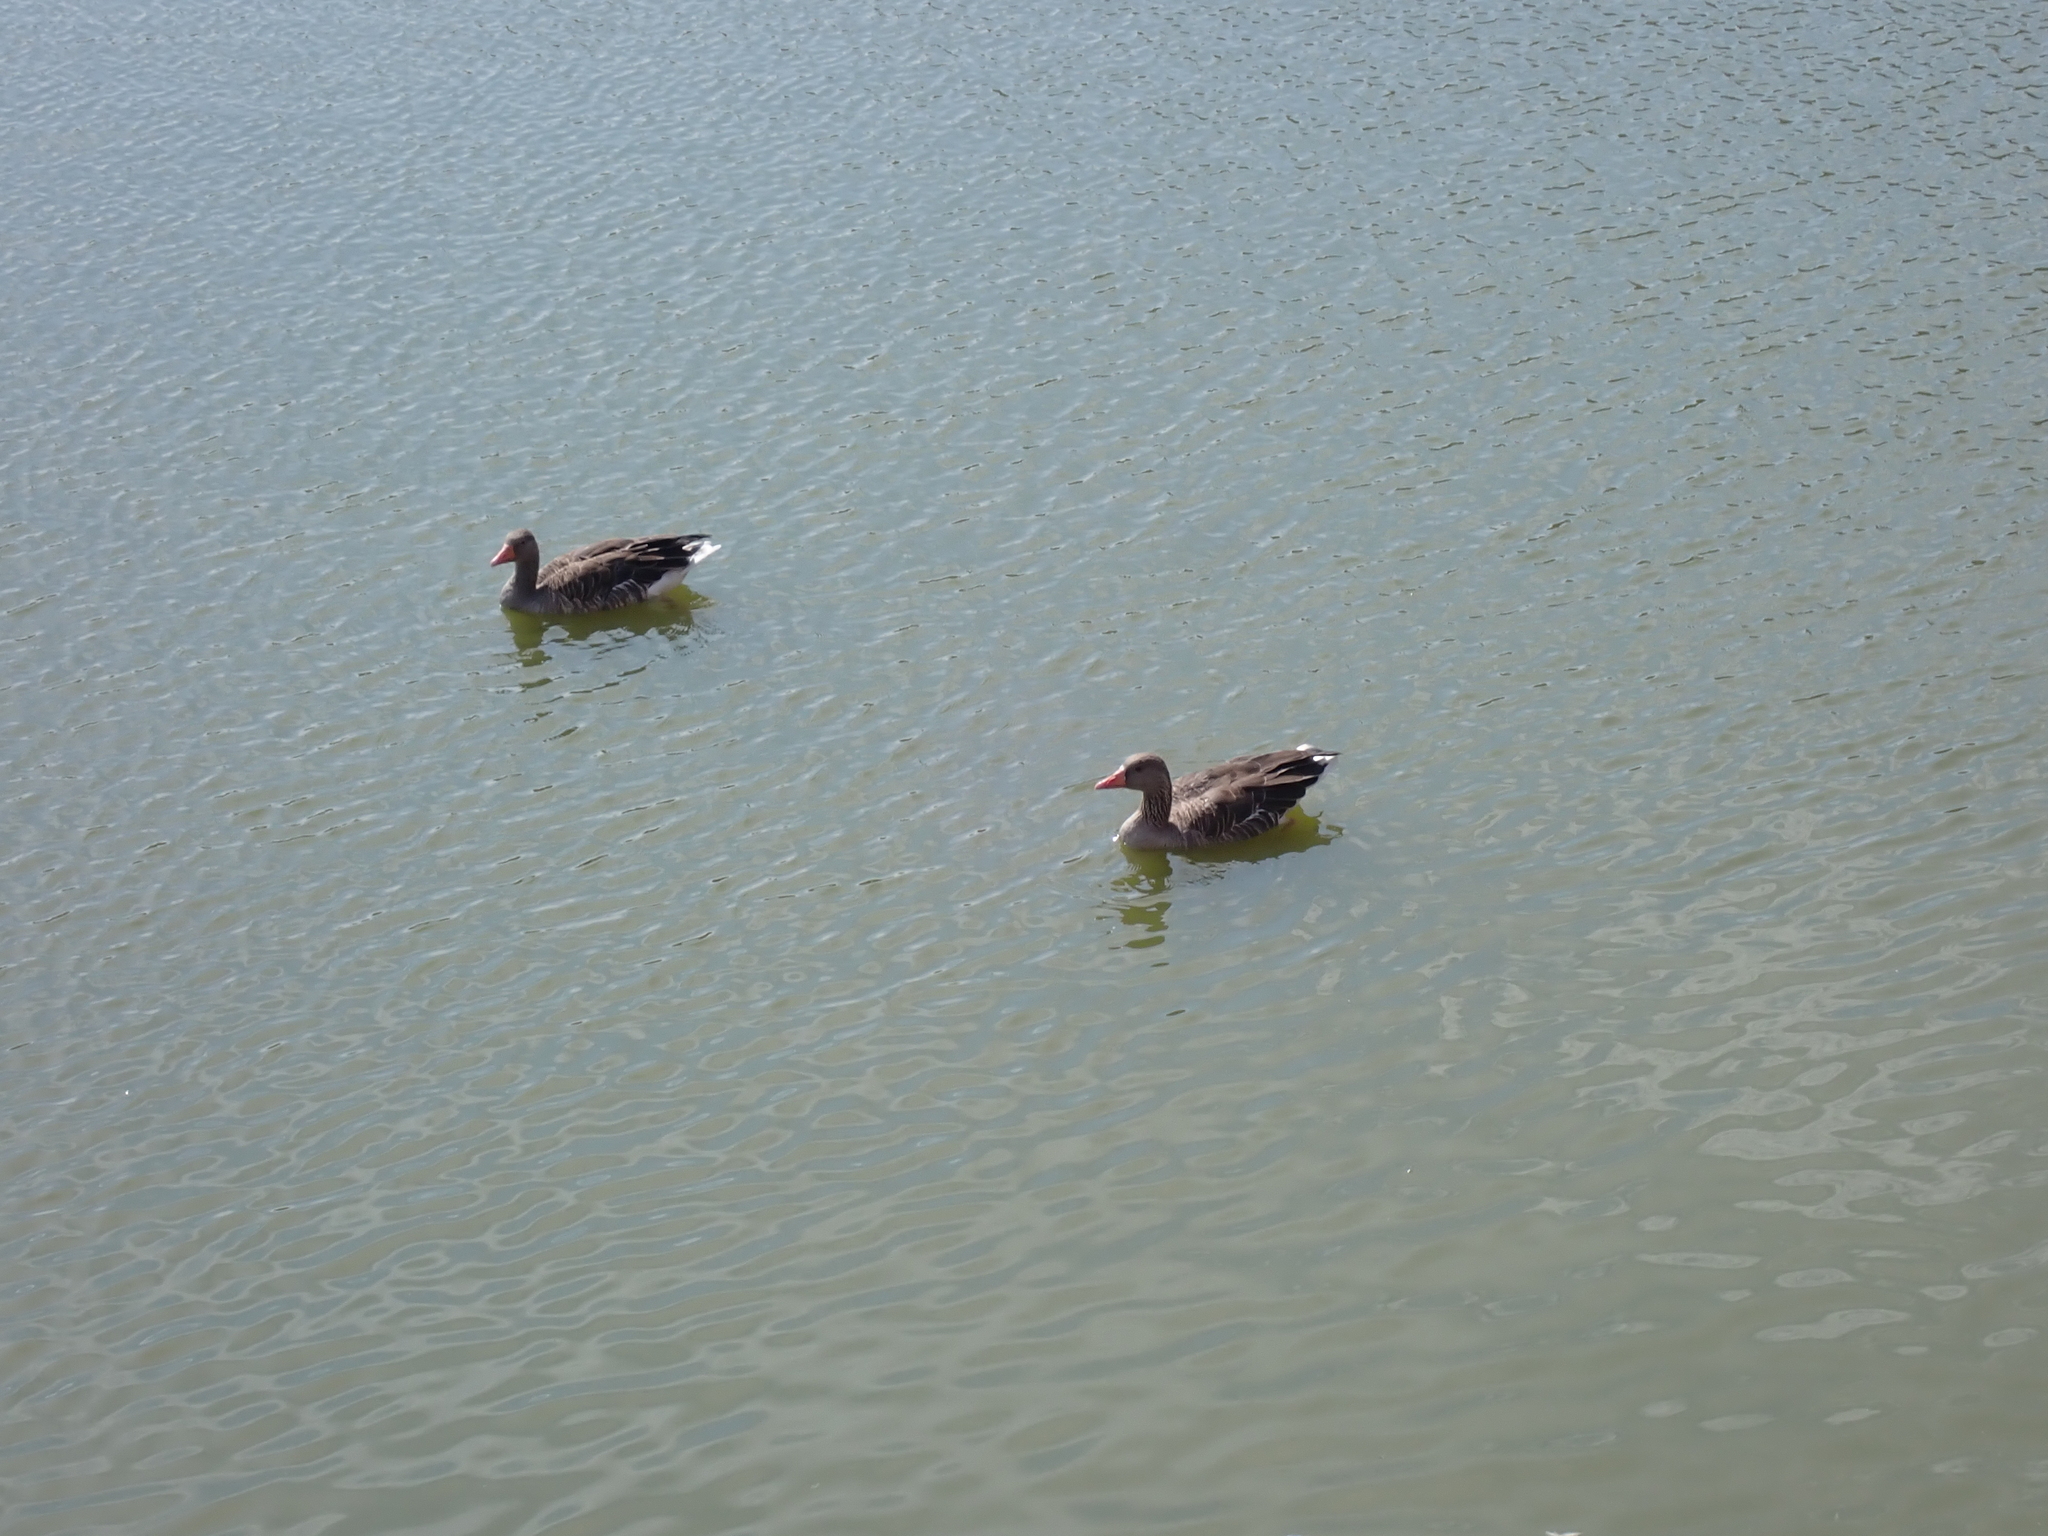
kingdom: Animalia
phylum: Chordata
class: Aves
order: Anseriformes
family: Anatidae
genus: Anser
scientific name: Anser anser
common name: Greylag goose
